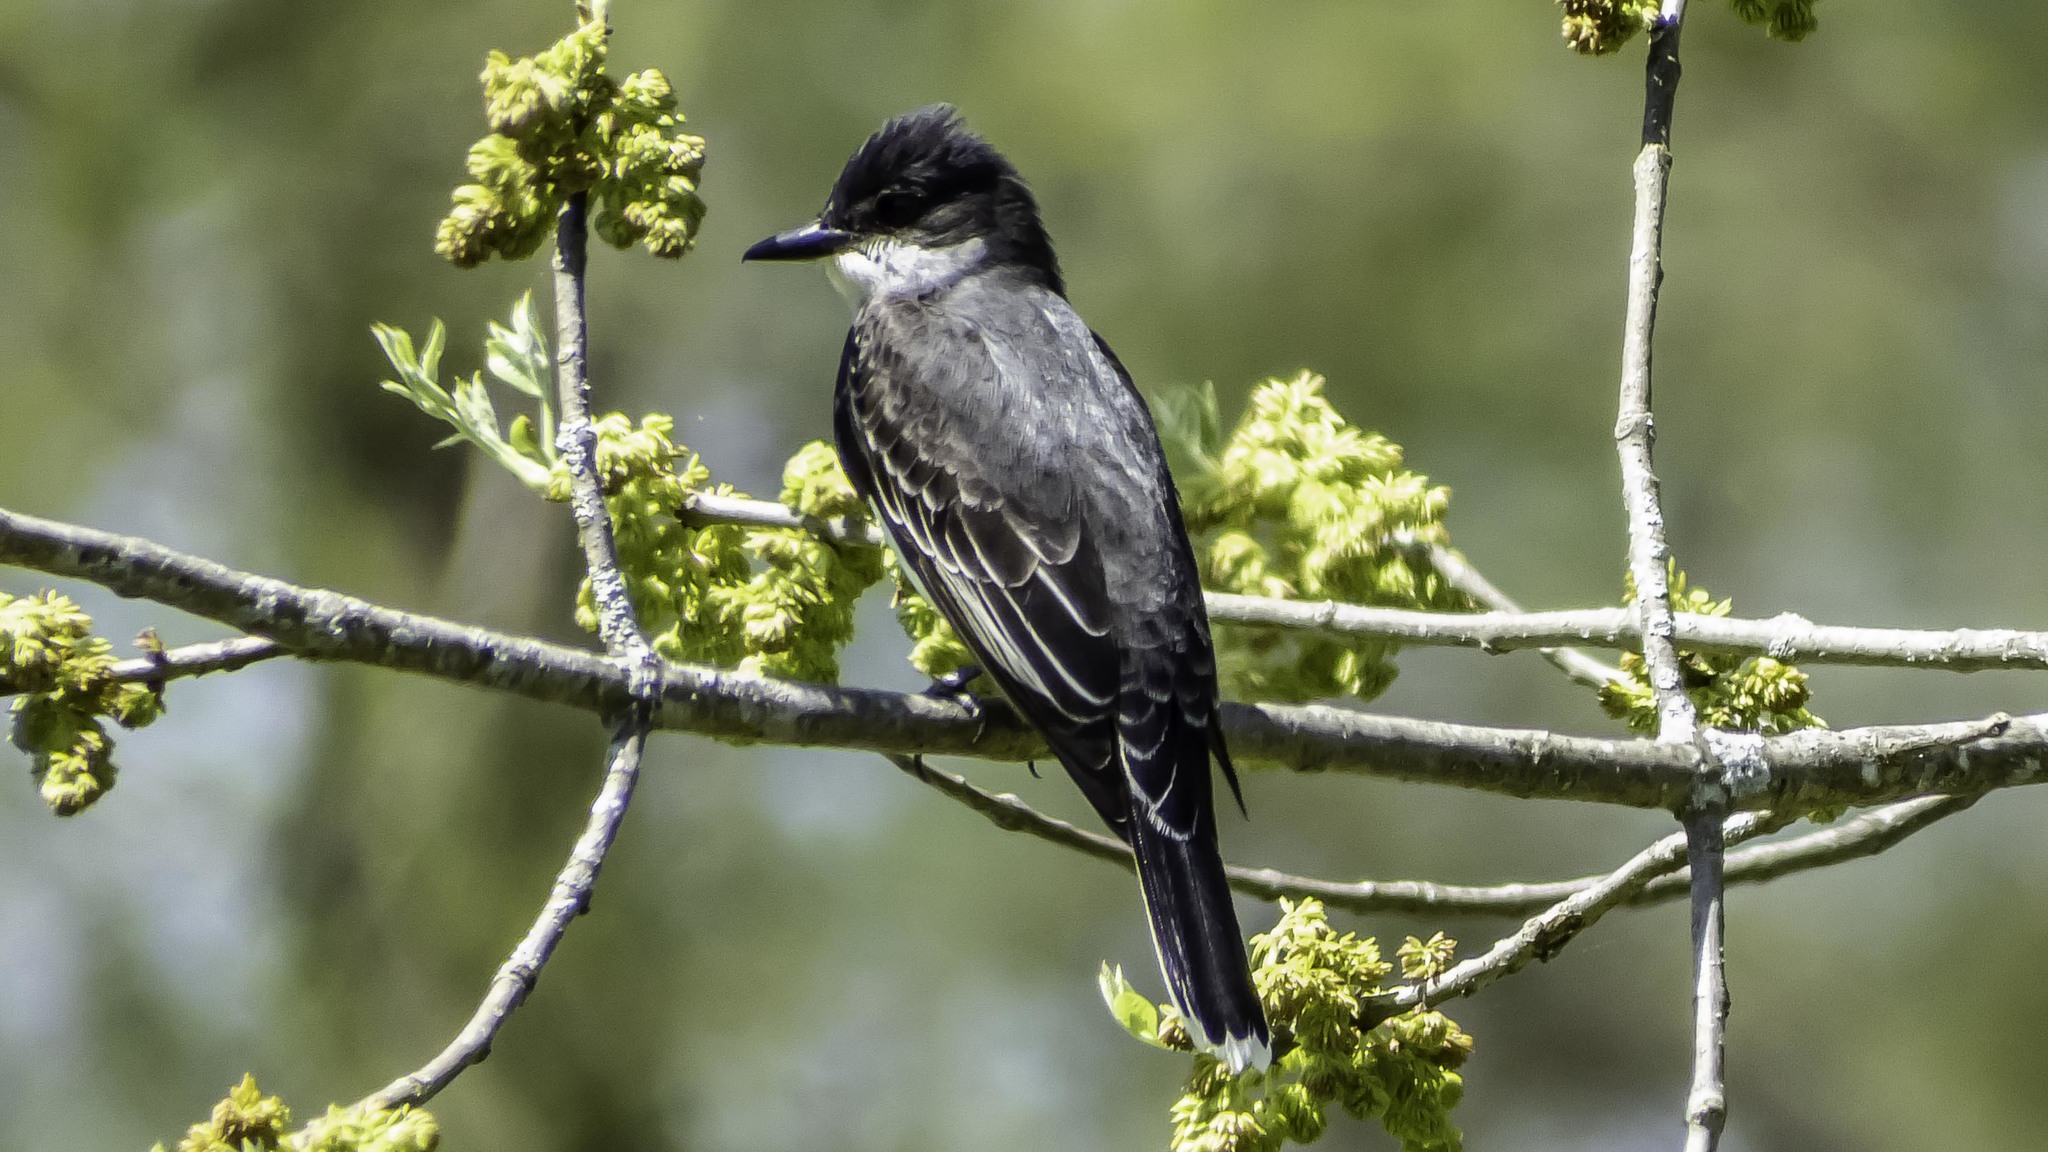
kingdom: Animalia
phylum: Chordata
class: Aves
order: Passeriformes
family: Tyrannidae
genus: Tyrannus
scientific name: Tyrannus tyrannus
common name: Eastern kingbird
